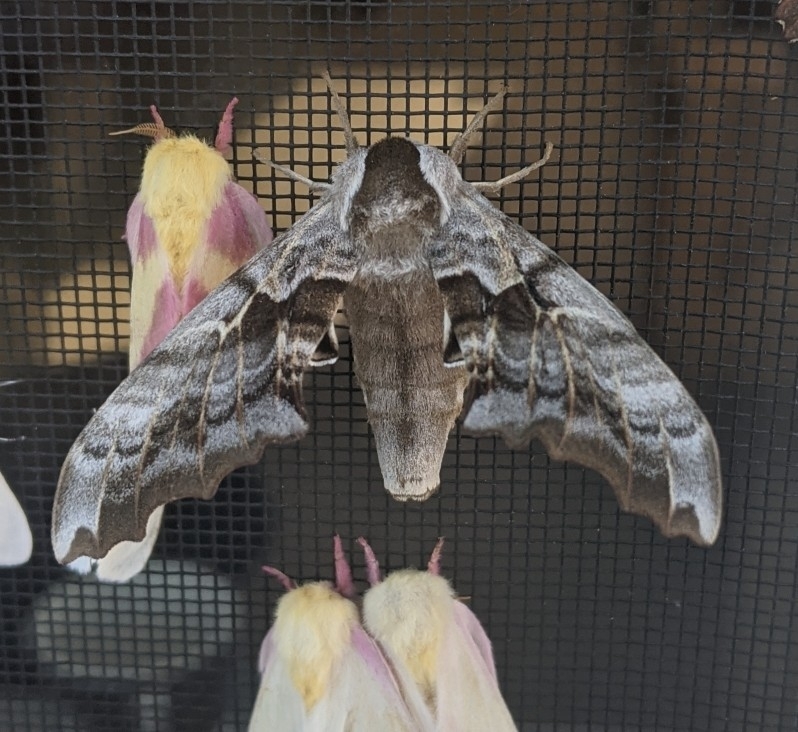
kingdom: Animalia
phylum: Arthropoda
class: Insecta
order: Lepidoptera
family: Sphingidae
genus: Smerinthus
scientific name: Smerinthus cerisyi
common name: Cerisy's sphinx moth
